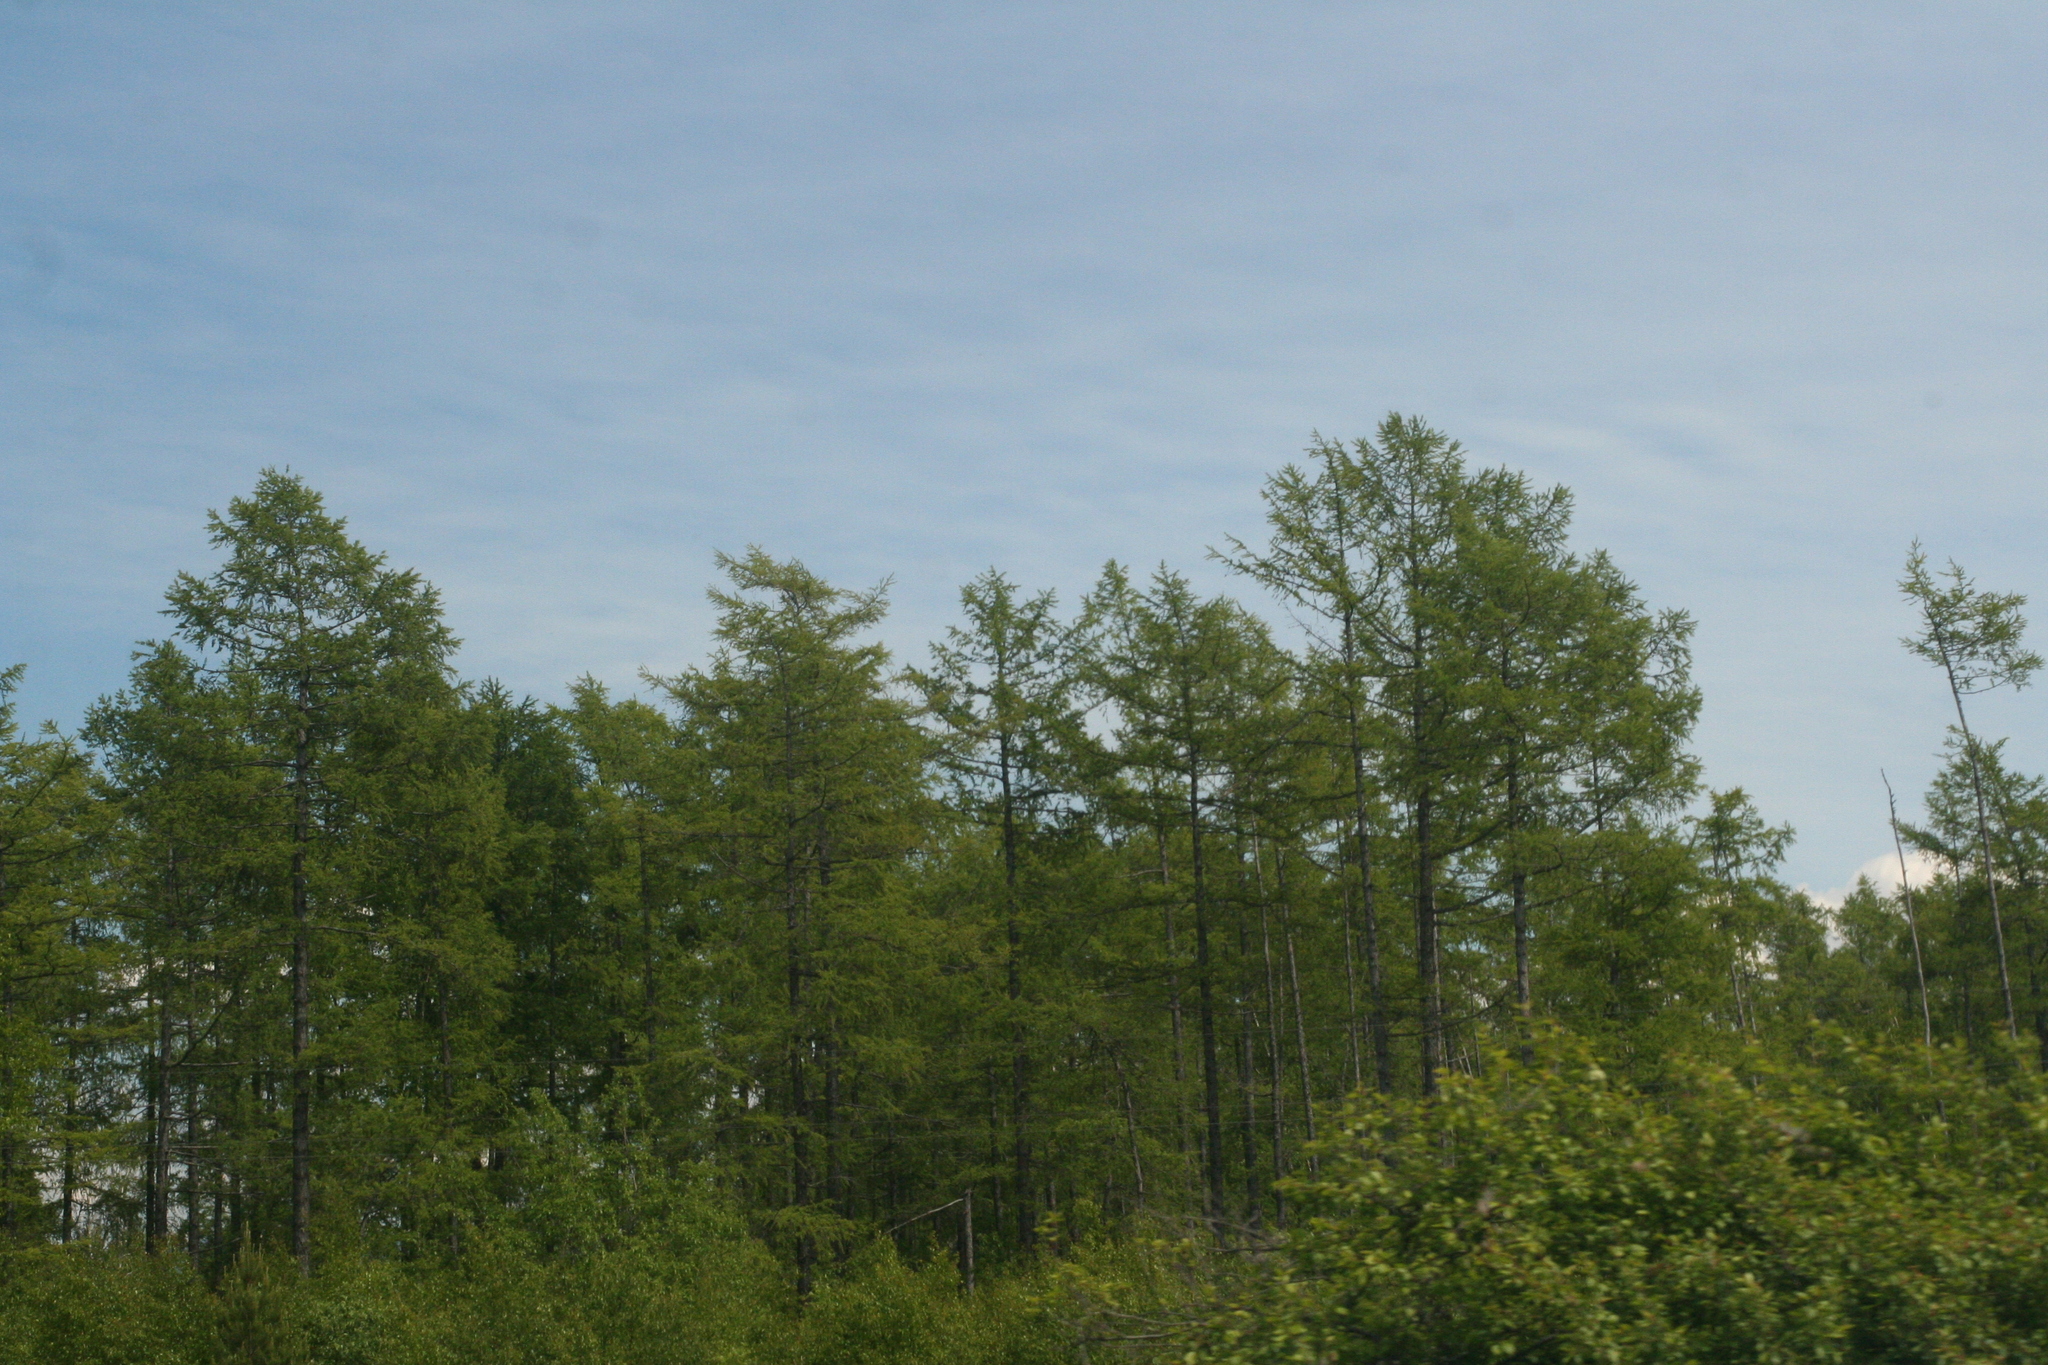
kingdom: Plantae
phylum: Tracheophyta
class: Pinopsida
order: Pinales
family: Pinaceae
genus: Larix
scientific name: Larix sibirica
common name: Siberian larch
